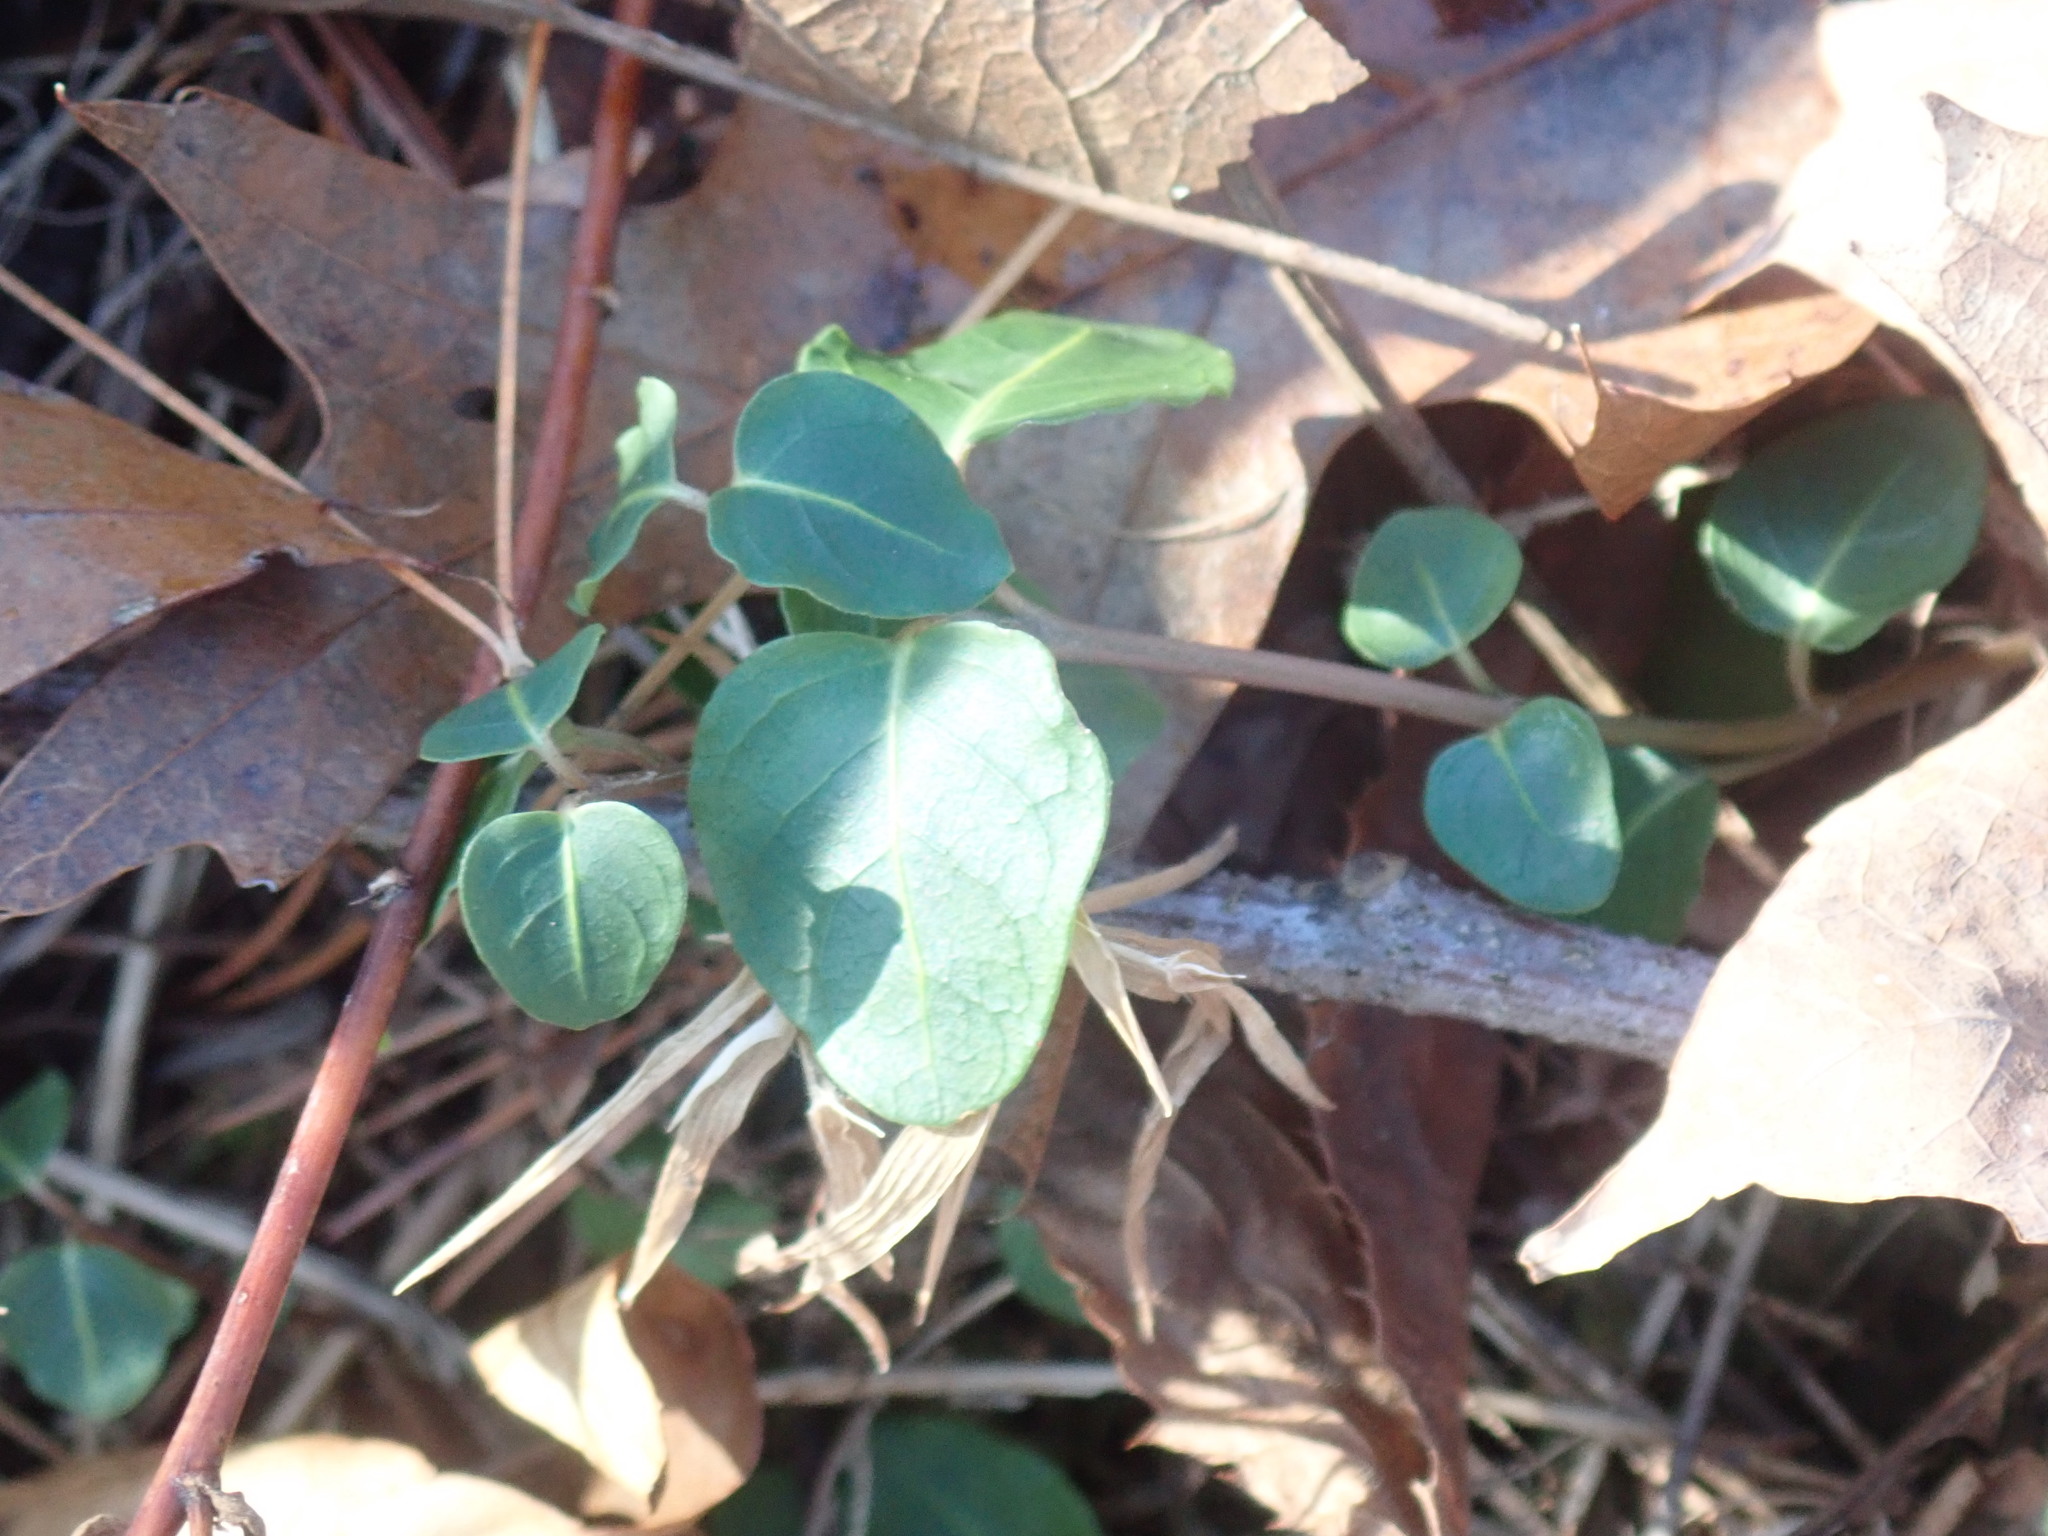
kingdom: Plantae
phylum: Tracheophyta
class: Magnoliopsida
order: Gentianales
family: Rubiaceae
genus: Mitchella
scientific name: Mitchella repens
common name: Partridge-berry
